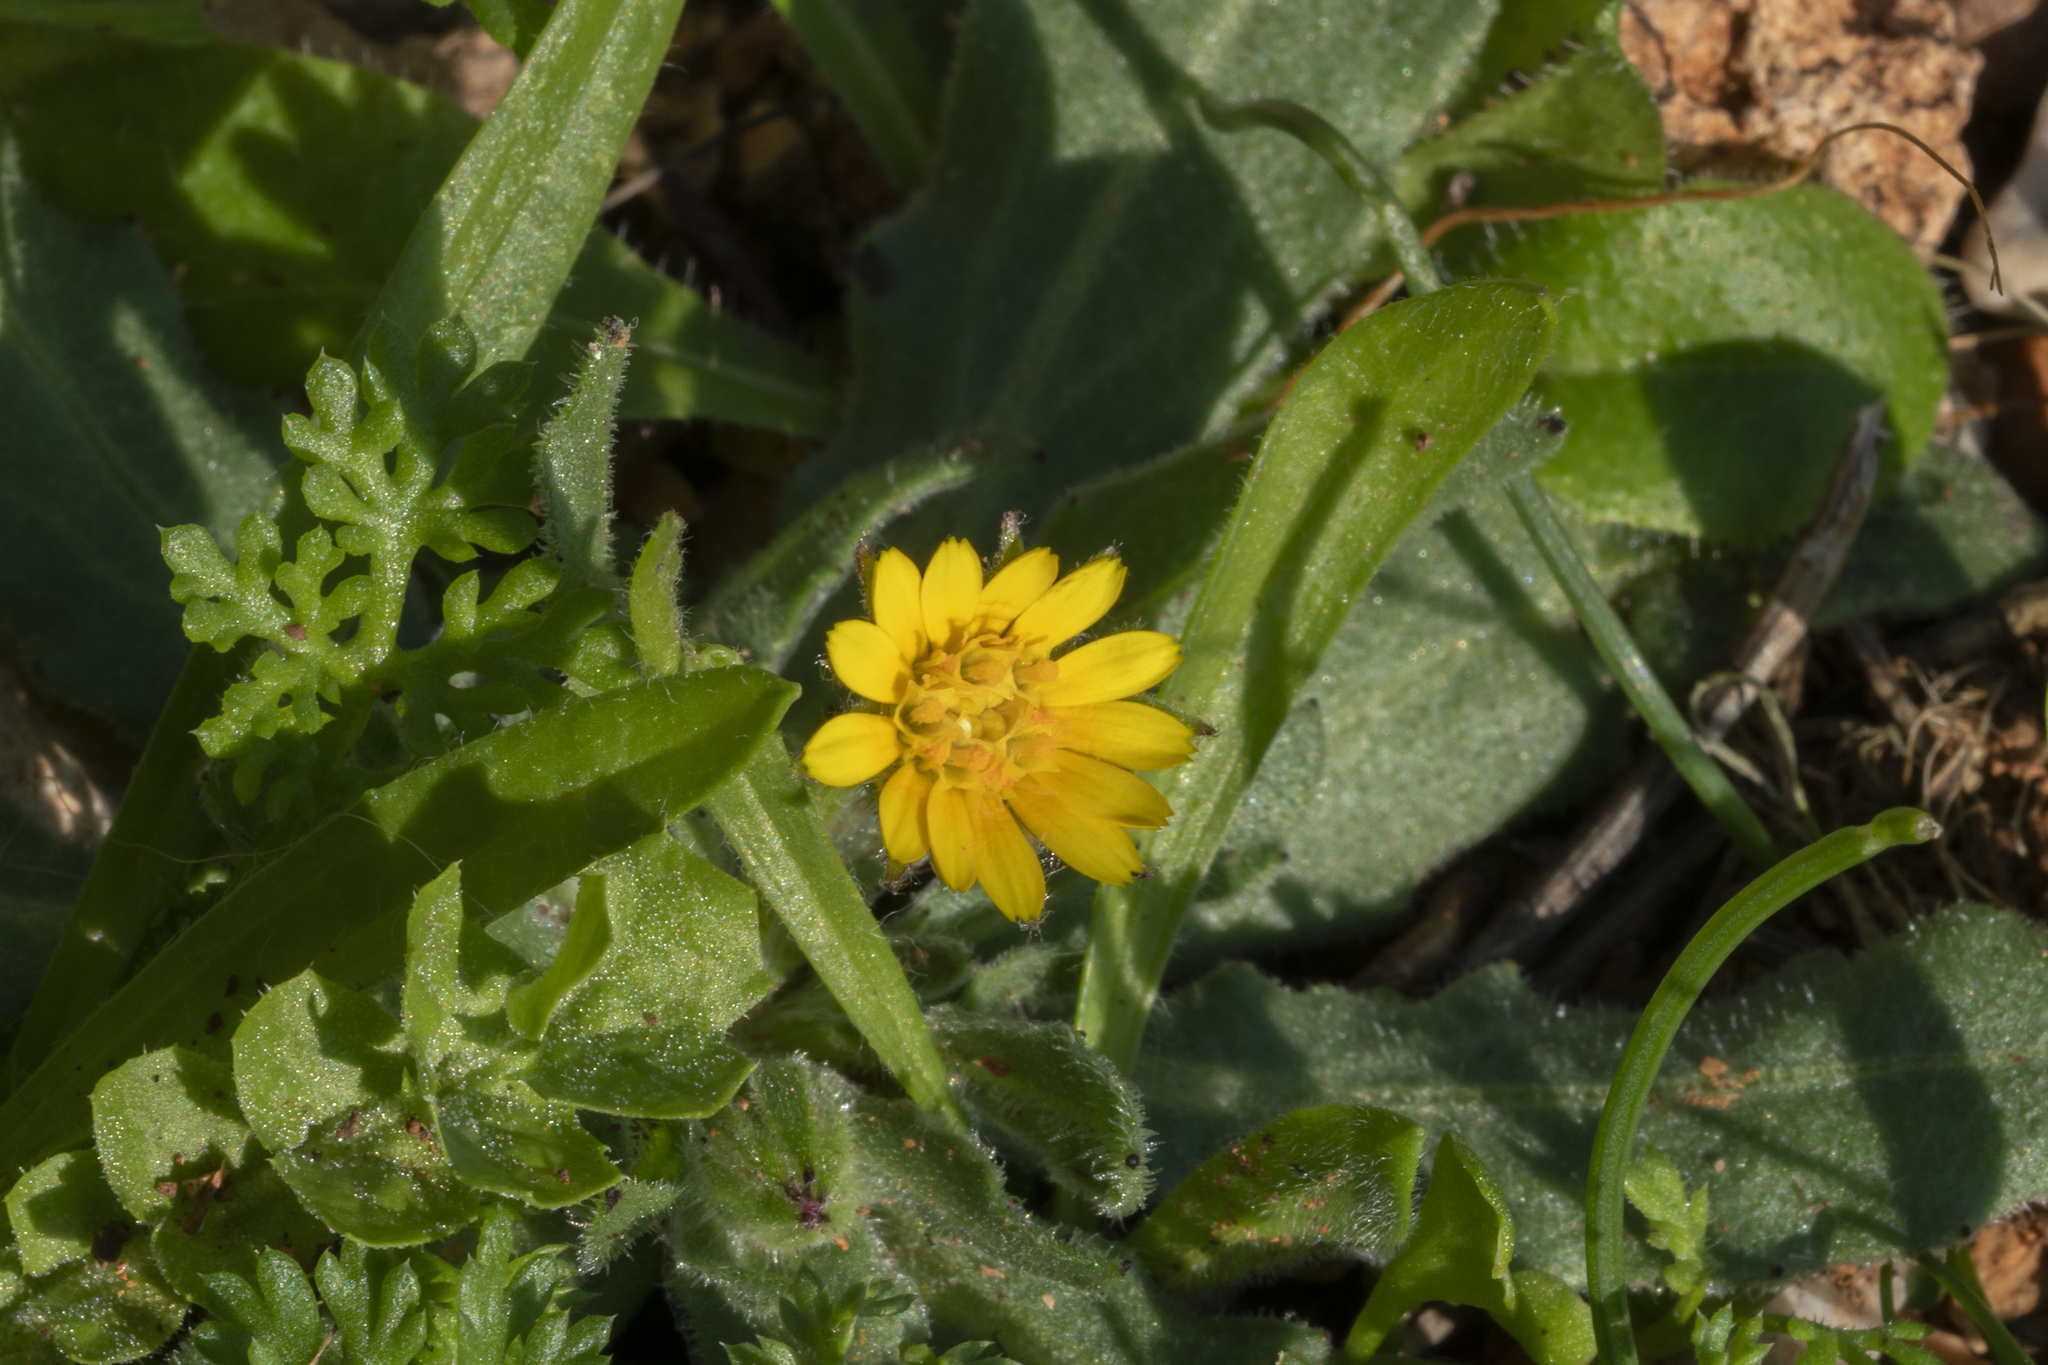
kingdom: Plantae
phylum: Tracheophyta
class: Magnoliopsida
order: Asterales
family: Asteraceae
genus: Calendula
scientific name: Calendula arvensis
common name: Field marigold
